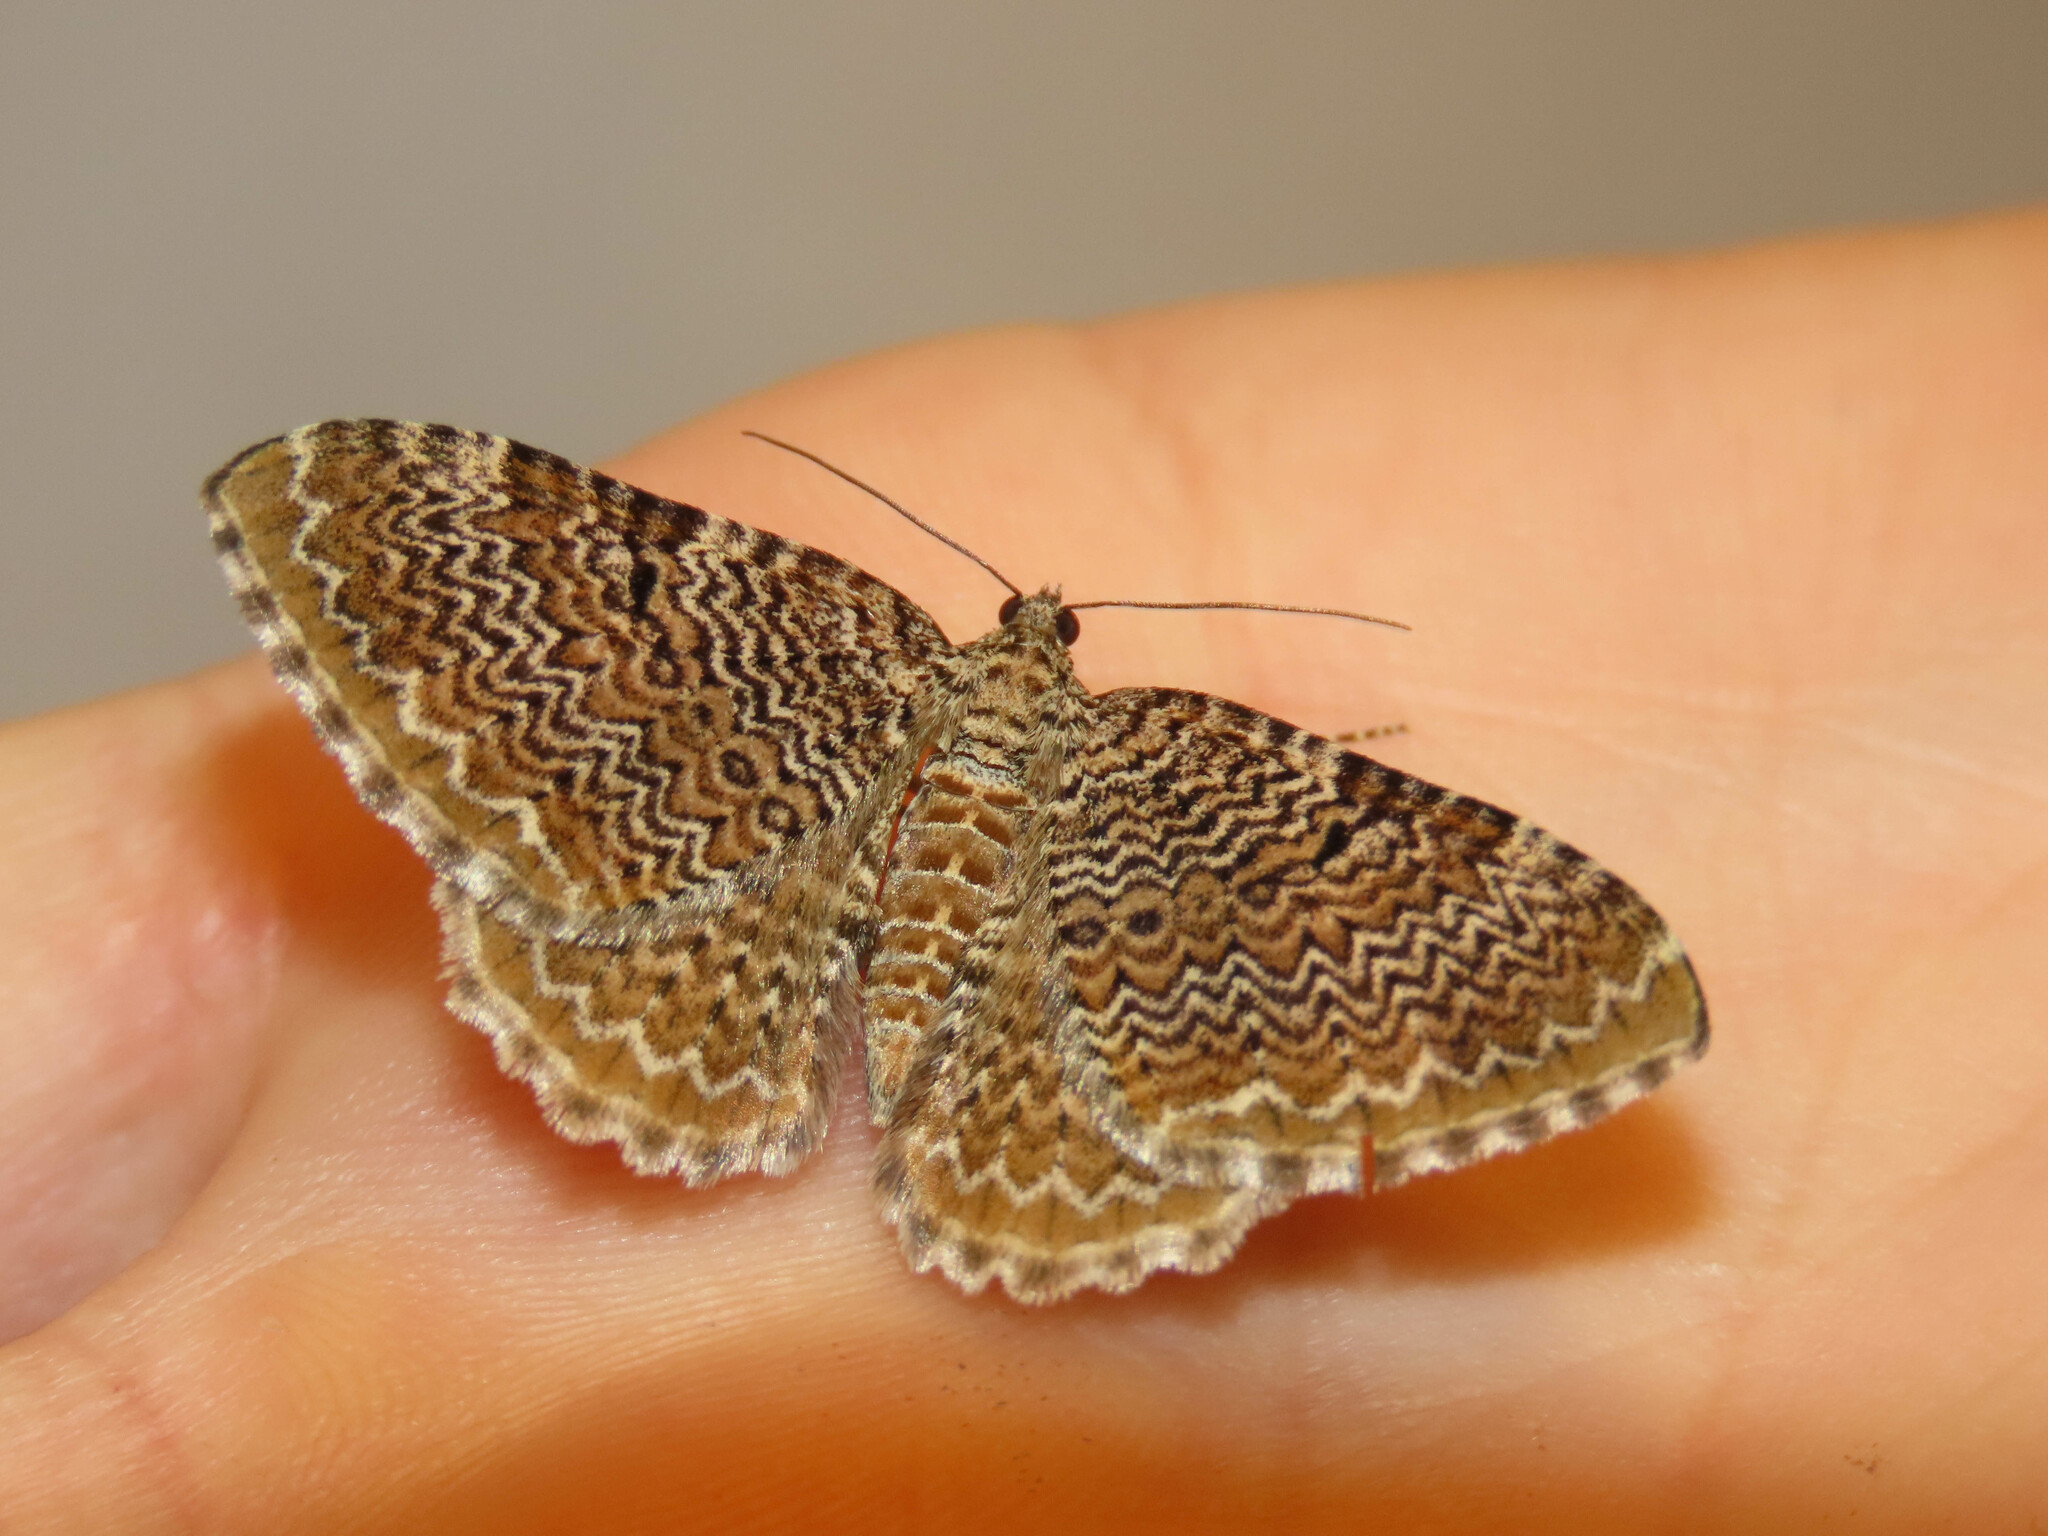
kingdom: Animalia
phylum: Arthropoda
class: Insecta
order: Lepidoptera
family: Geometridae
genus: Rheumaptera
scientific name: Rheumaptera
